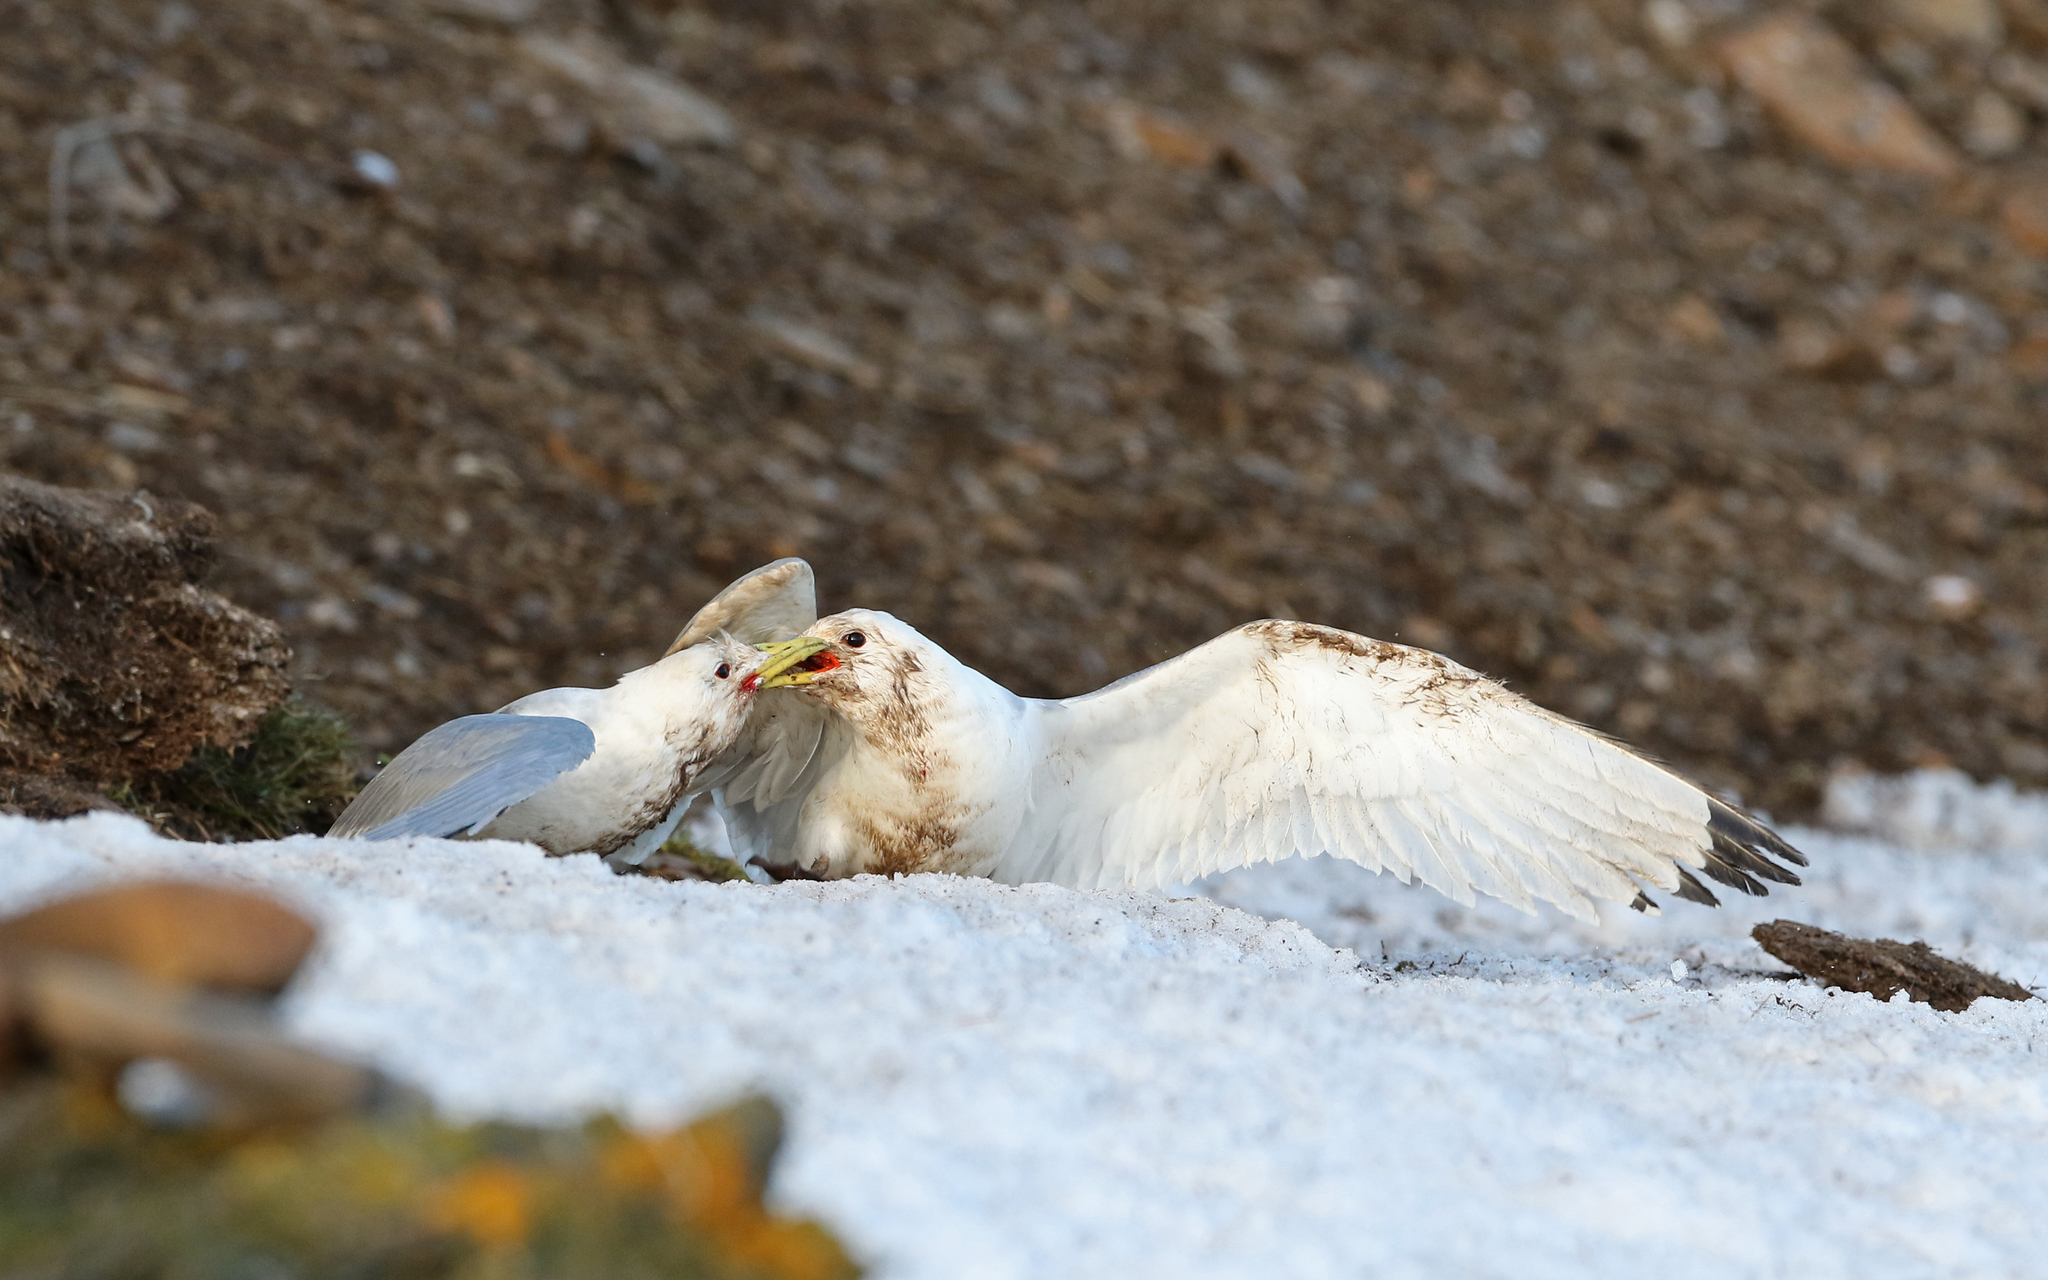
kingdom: Animalia
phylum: Chordata
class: Aves
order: Charadriiformes
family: Laridae
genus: Rissa
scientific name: Rissa tridactyla
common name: Black-legged kittiwake
